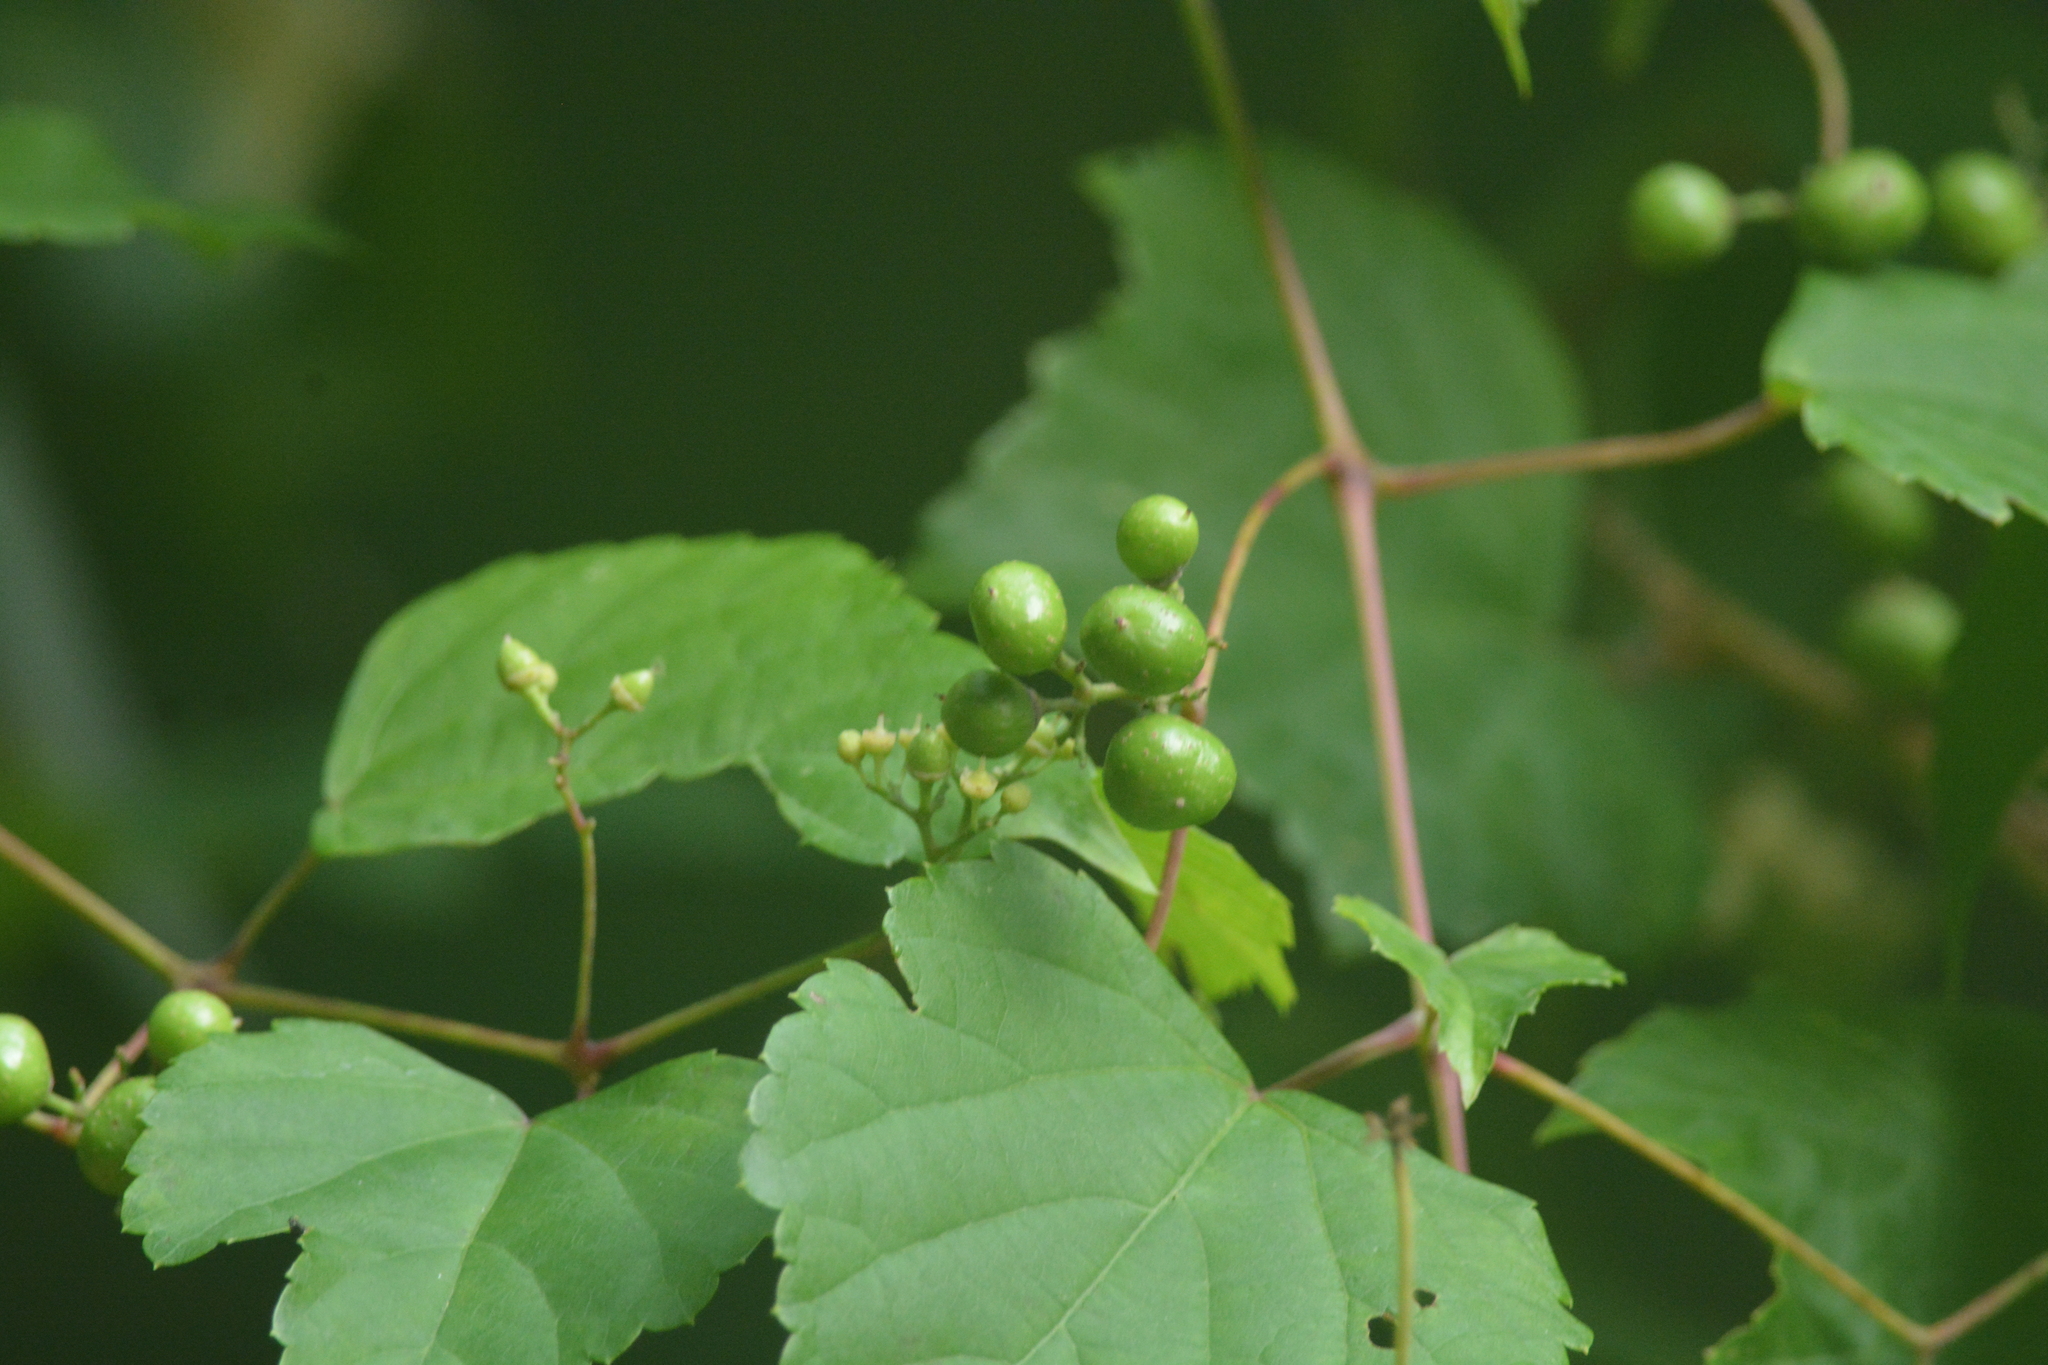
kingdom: Plantae
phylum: Tracheophyta
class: Magnoliopsida
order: Vitales
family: Vitaceae
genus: Ampelopsis
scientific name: Ampelopsis glandulosa
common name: Amur peppervine
